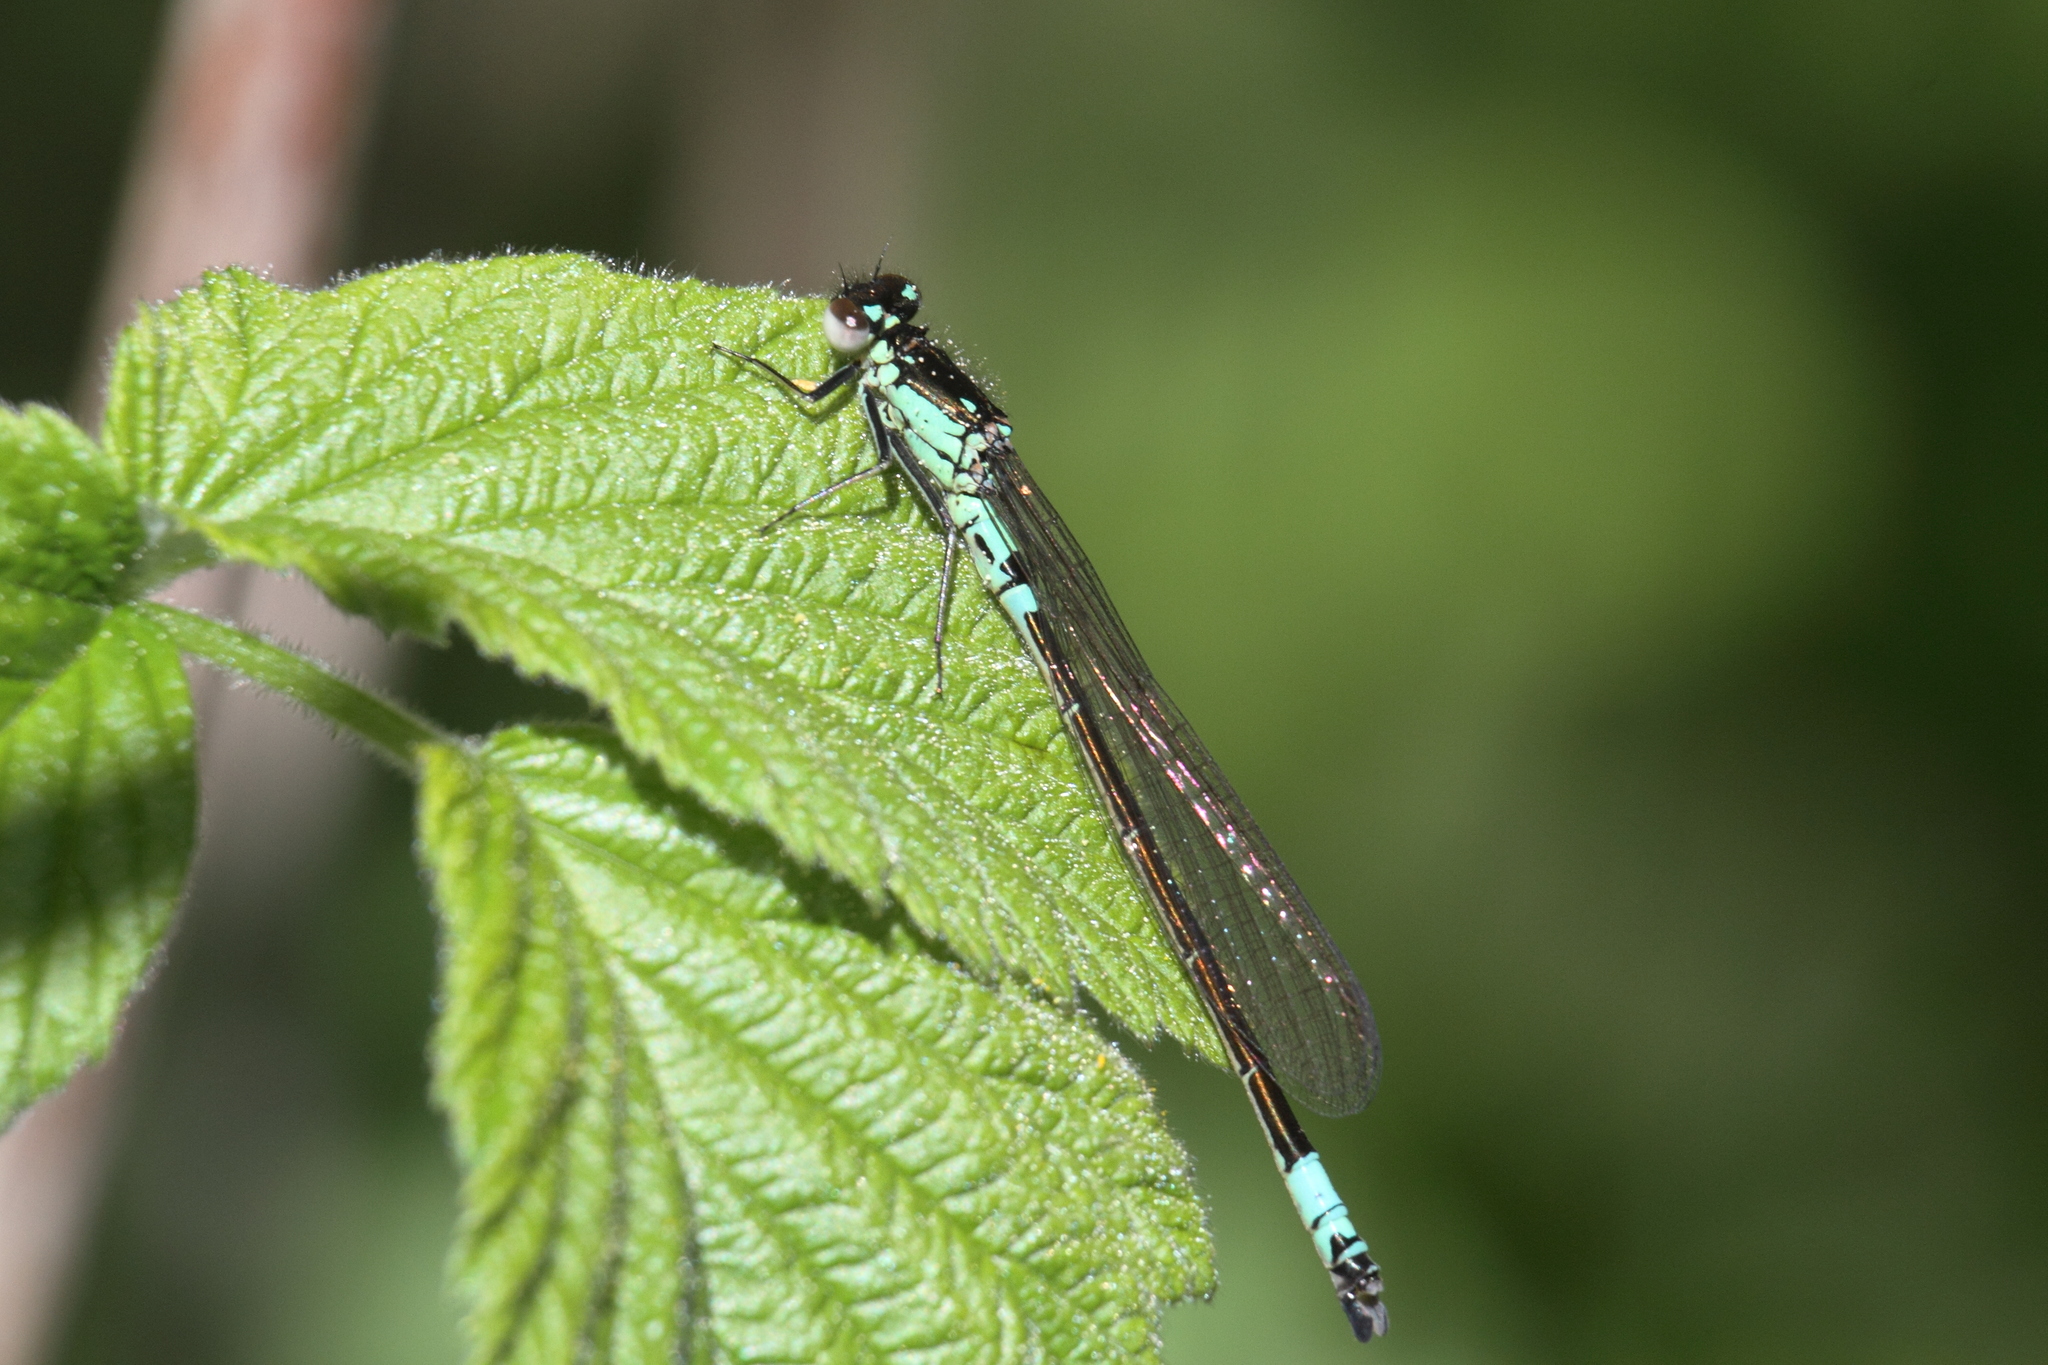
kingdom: Animalia
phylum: Arthropoda
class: Insecta
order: Odonata
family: Coenagrionidae
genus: Coenagrion
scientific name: Coenagrion armatum
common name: Dark bluet
